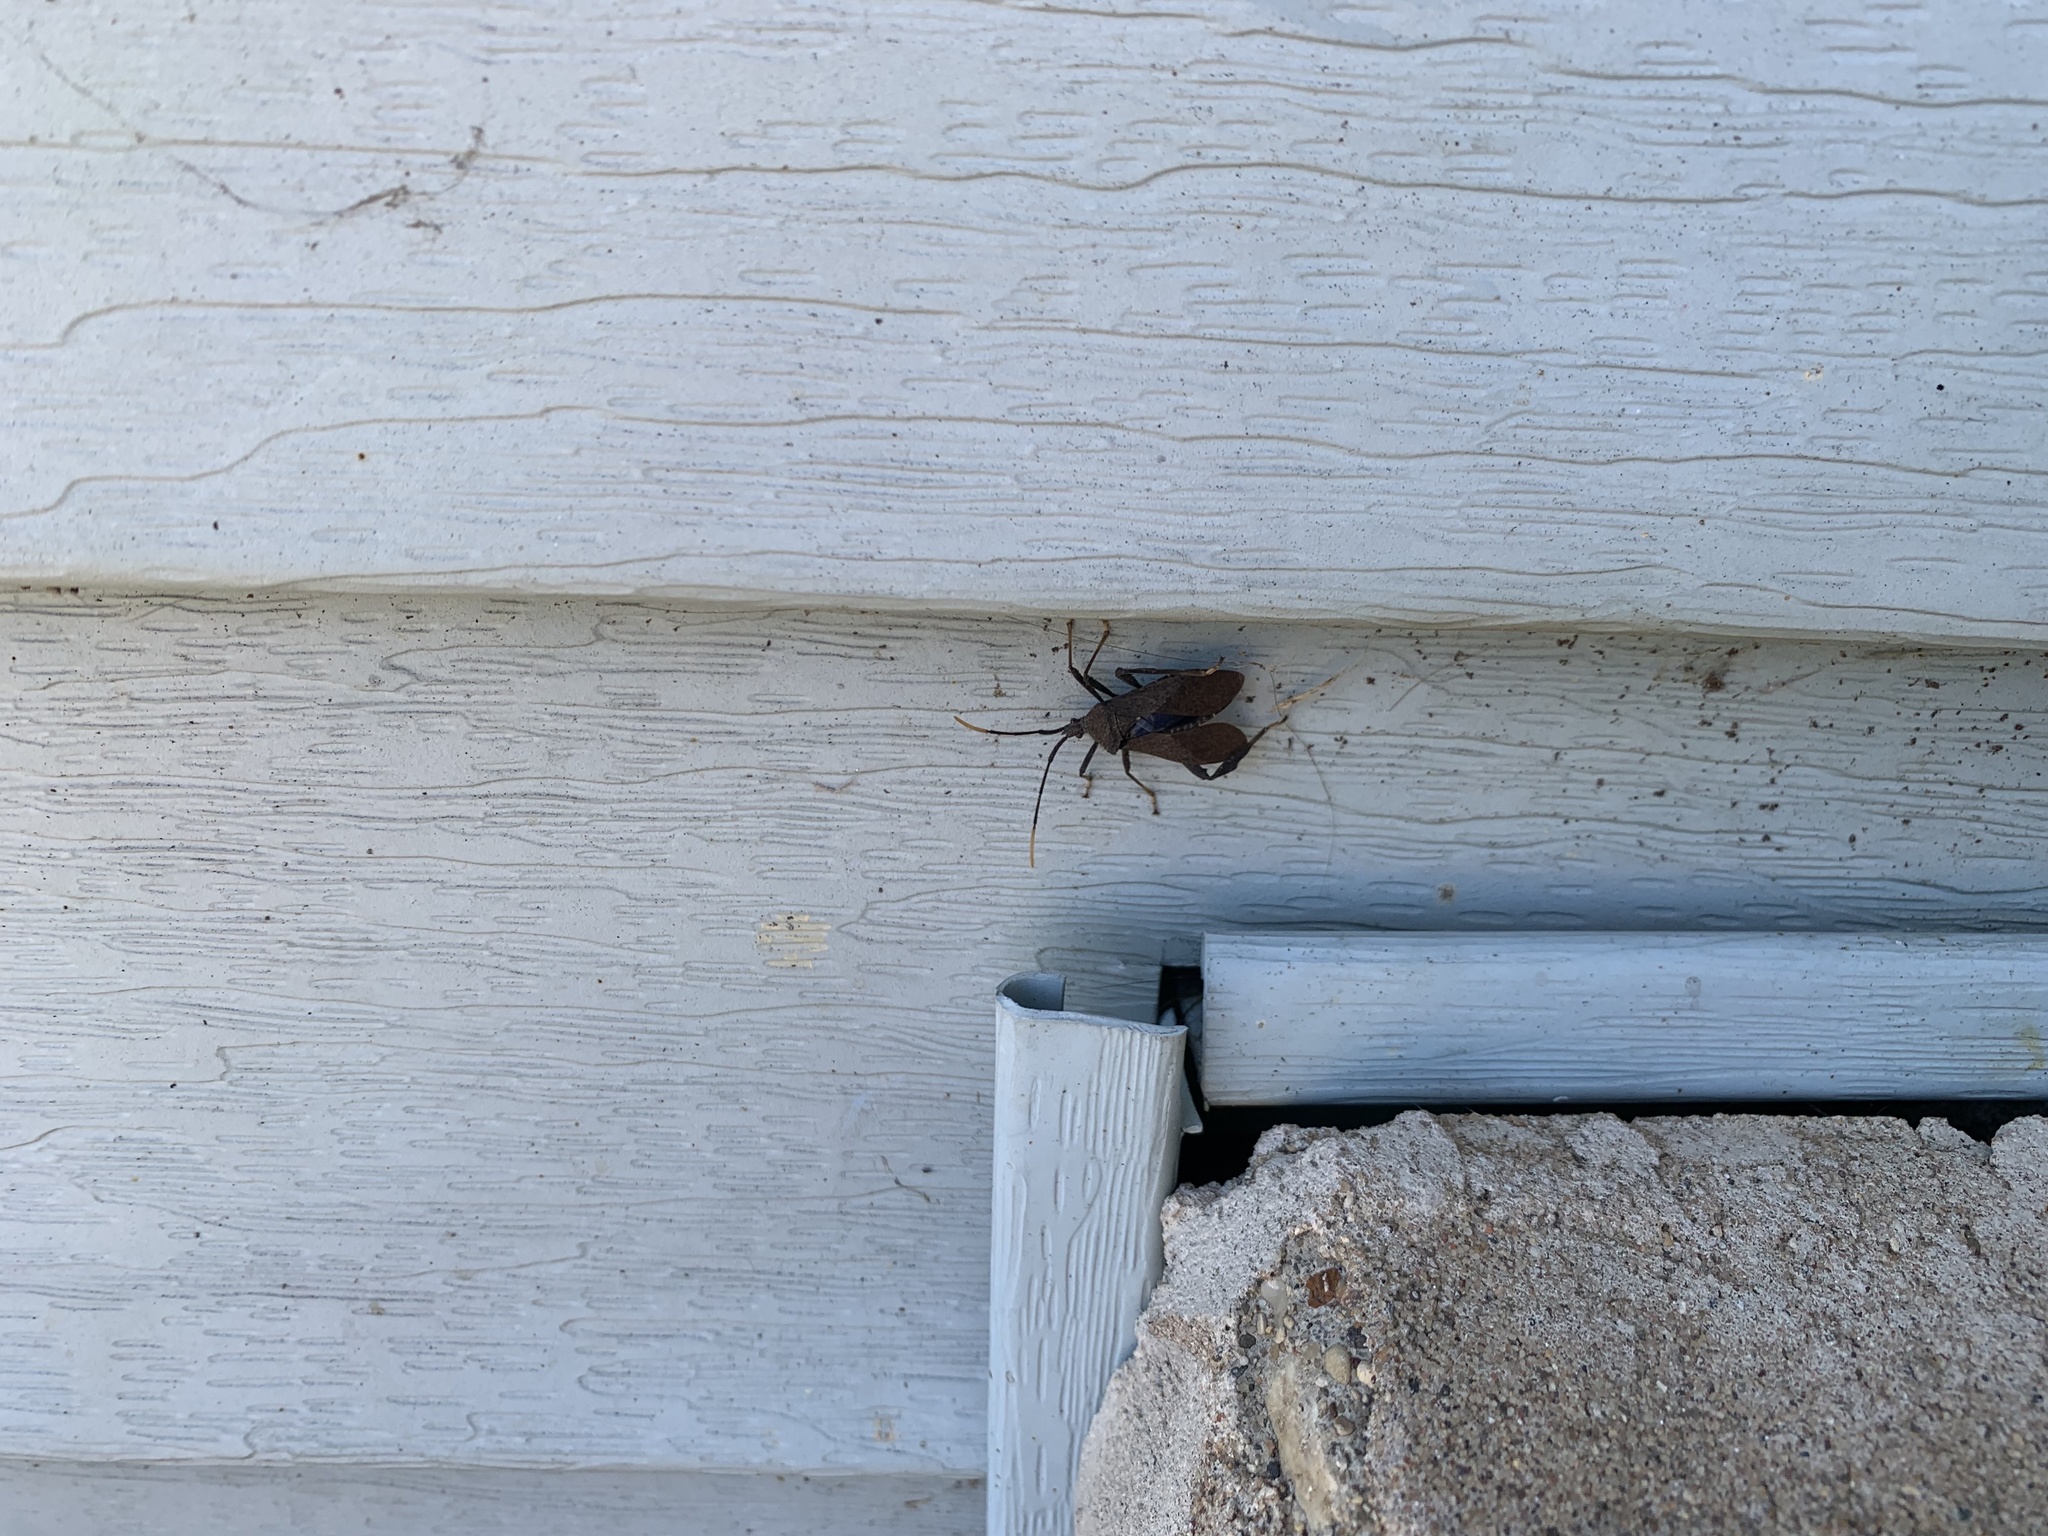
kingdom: Animalia
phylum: Arthropoda
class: Insecta
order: Hemiptera
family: Coreidae
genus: Acanthocephala
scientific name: Acanthocephala terminalis
